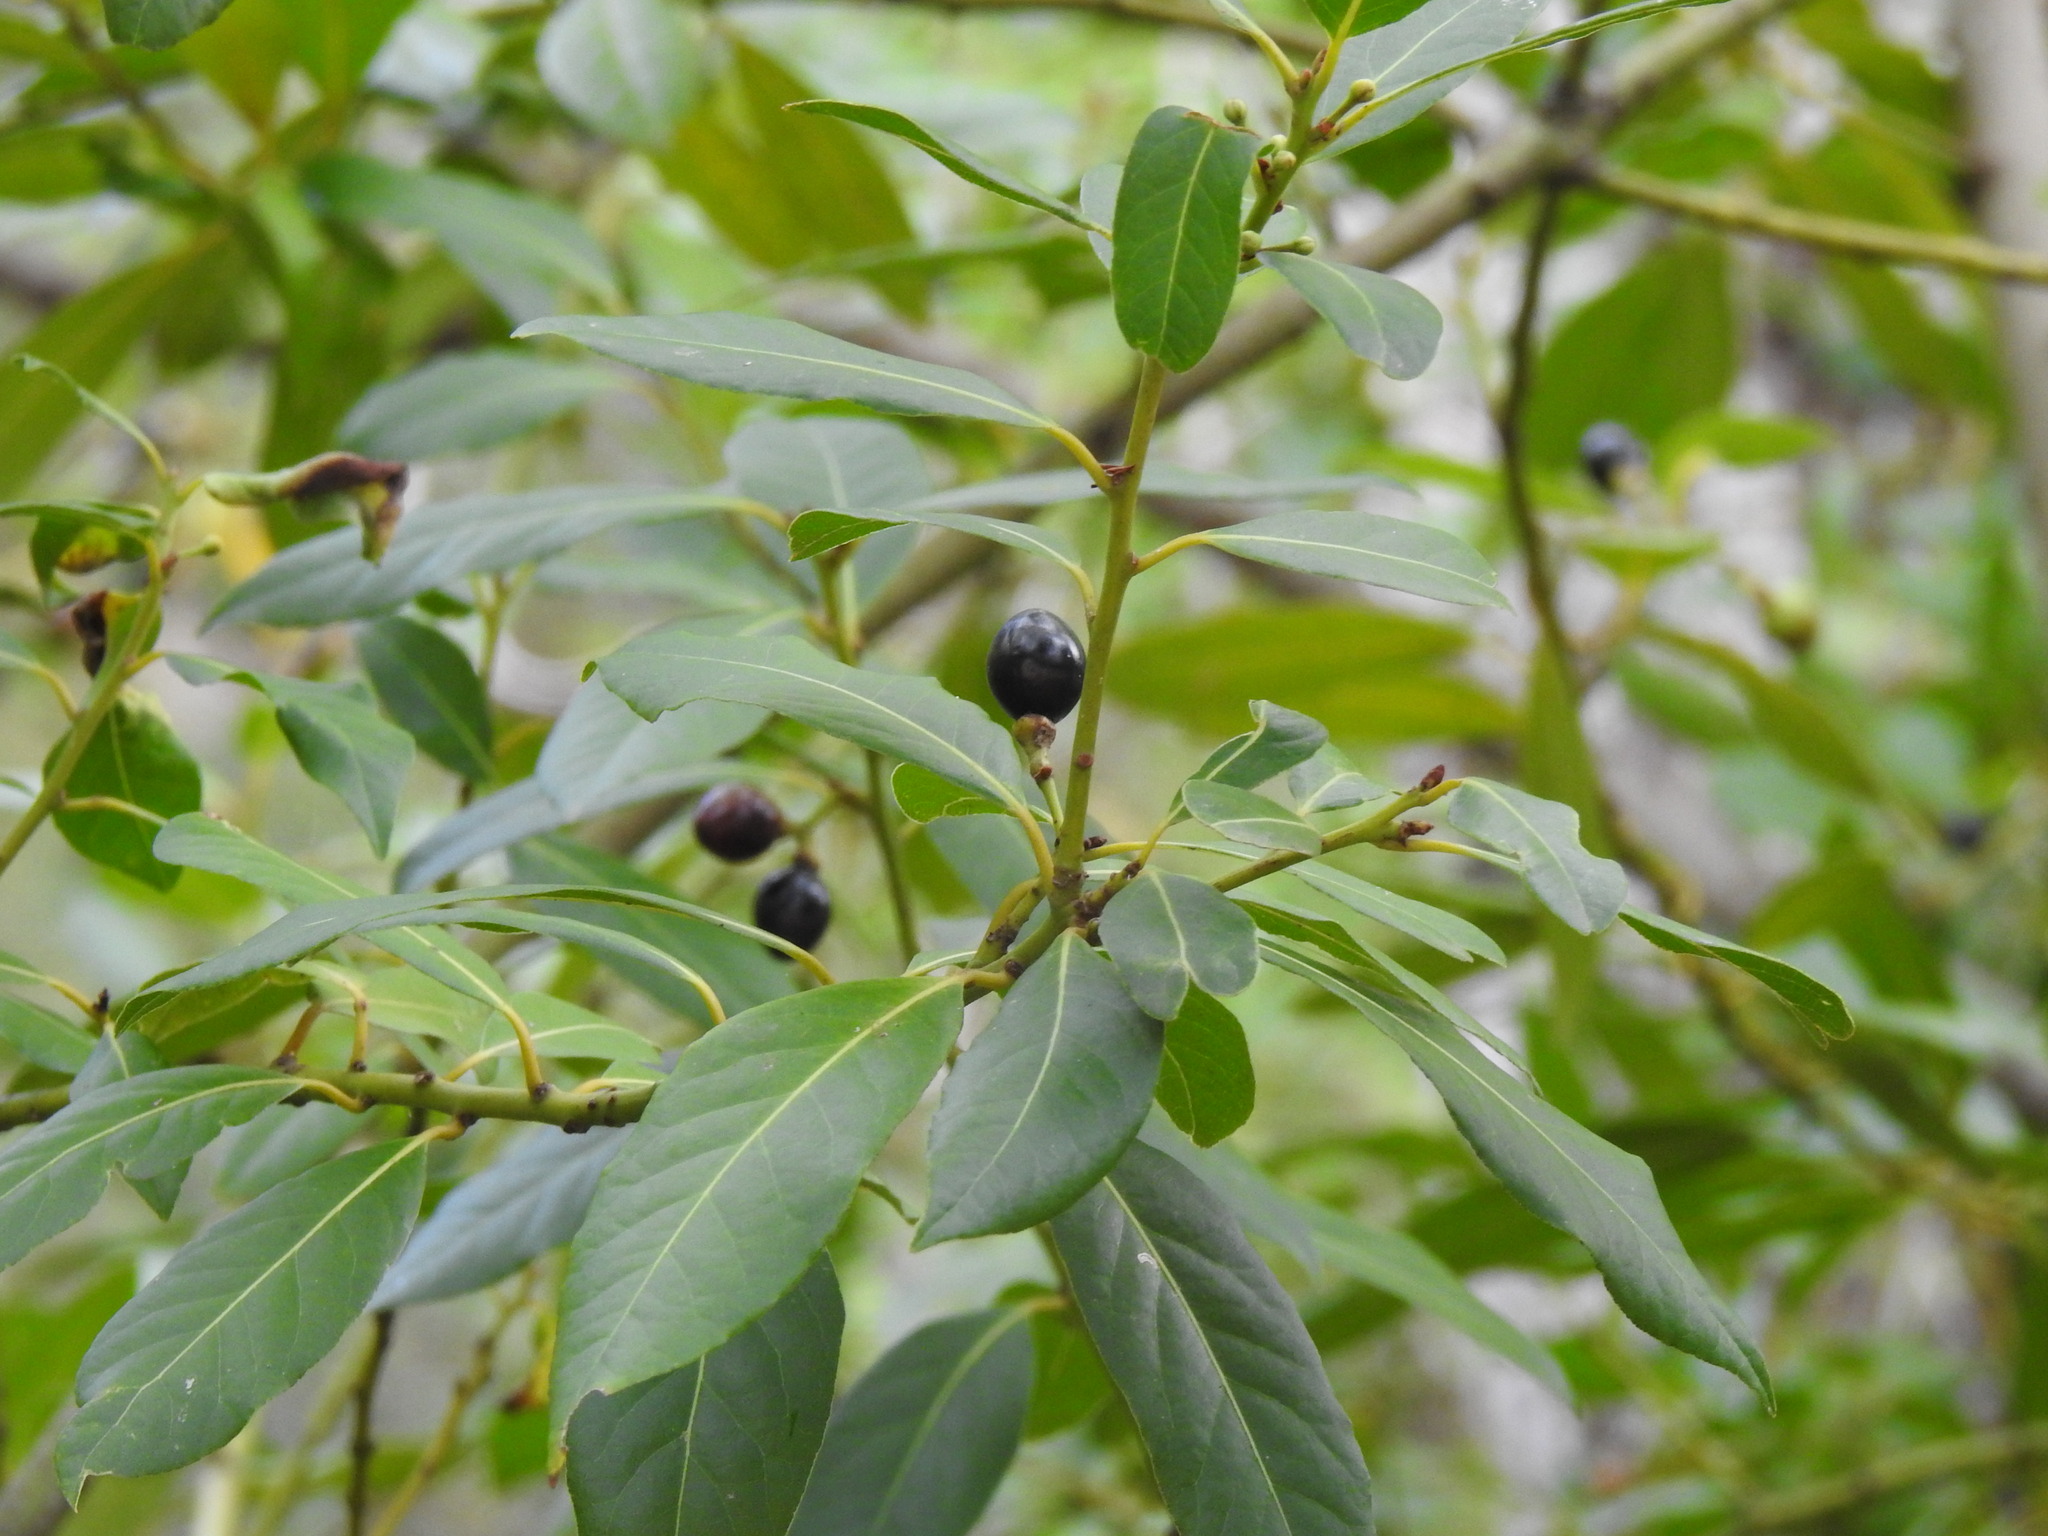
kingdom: Plantae
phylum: Tracheophyta
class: Magnoliopsida
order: Laurales
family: Lauraceae
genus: Laurus
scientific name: Laurus nobilis
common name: Bay
